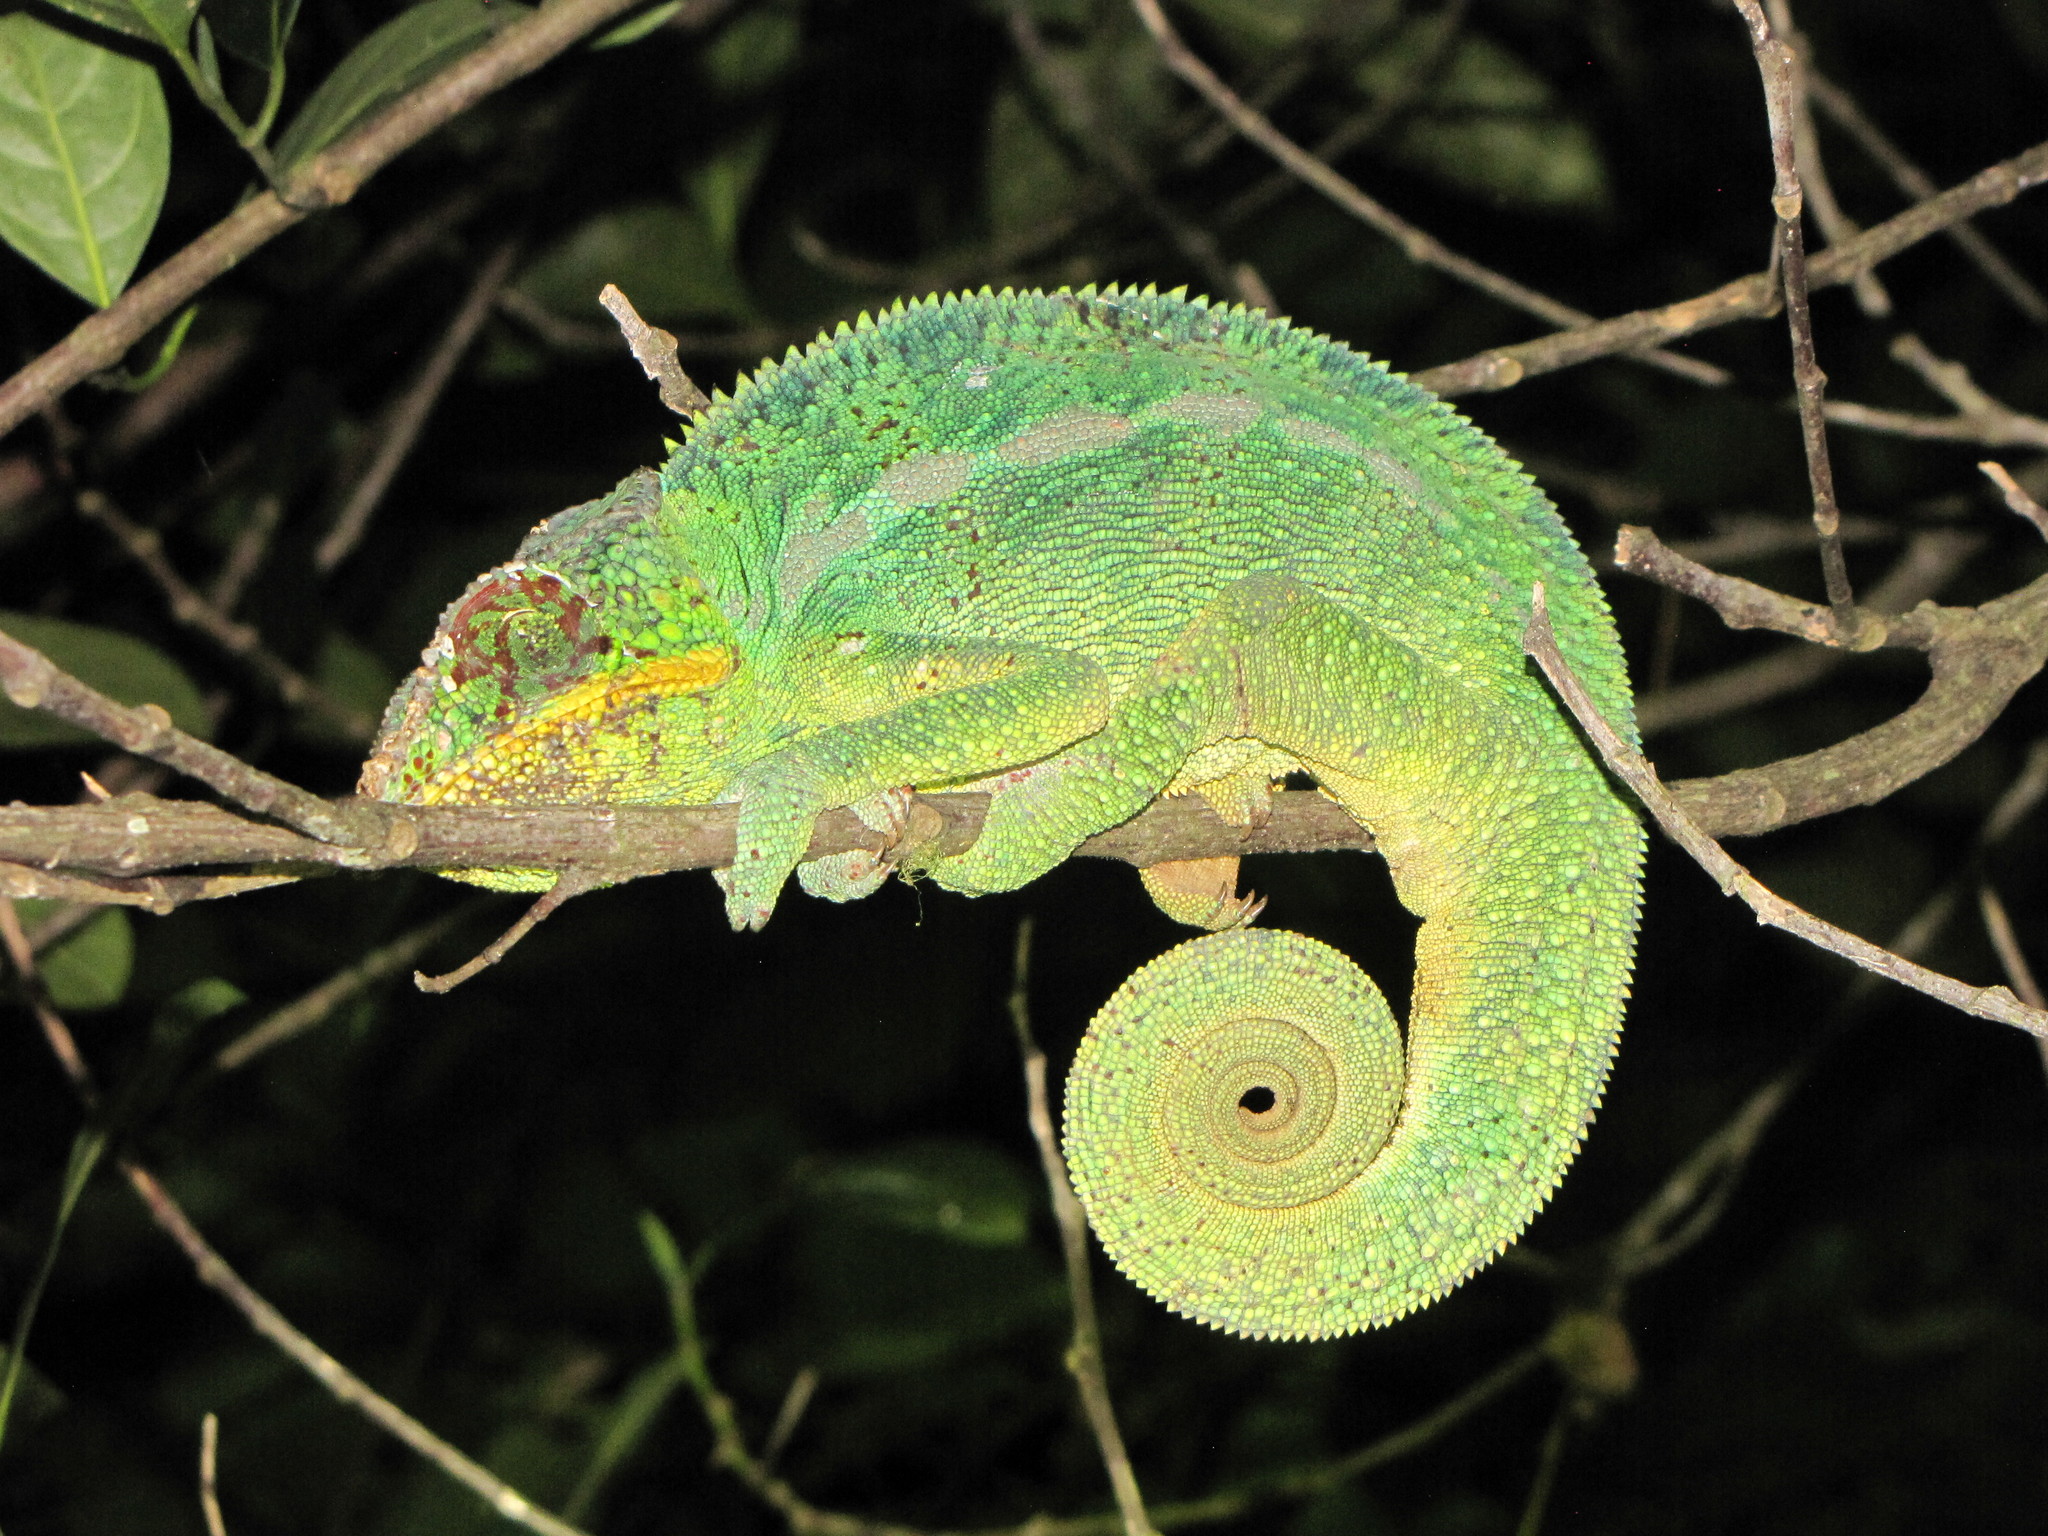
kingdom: Animalia
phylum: Chordata
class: Squamata
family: Chamaeleonidae
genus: Furcifer
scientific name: Furcifer pardalis
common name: Panther chameleon
